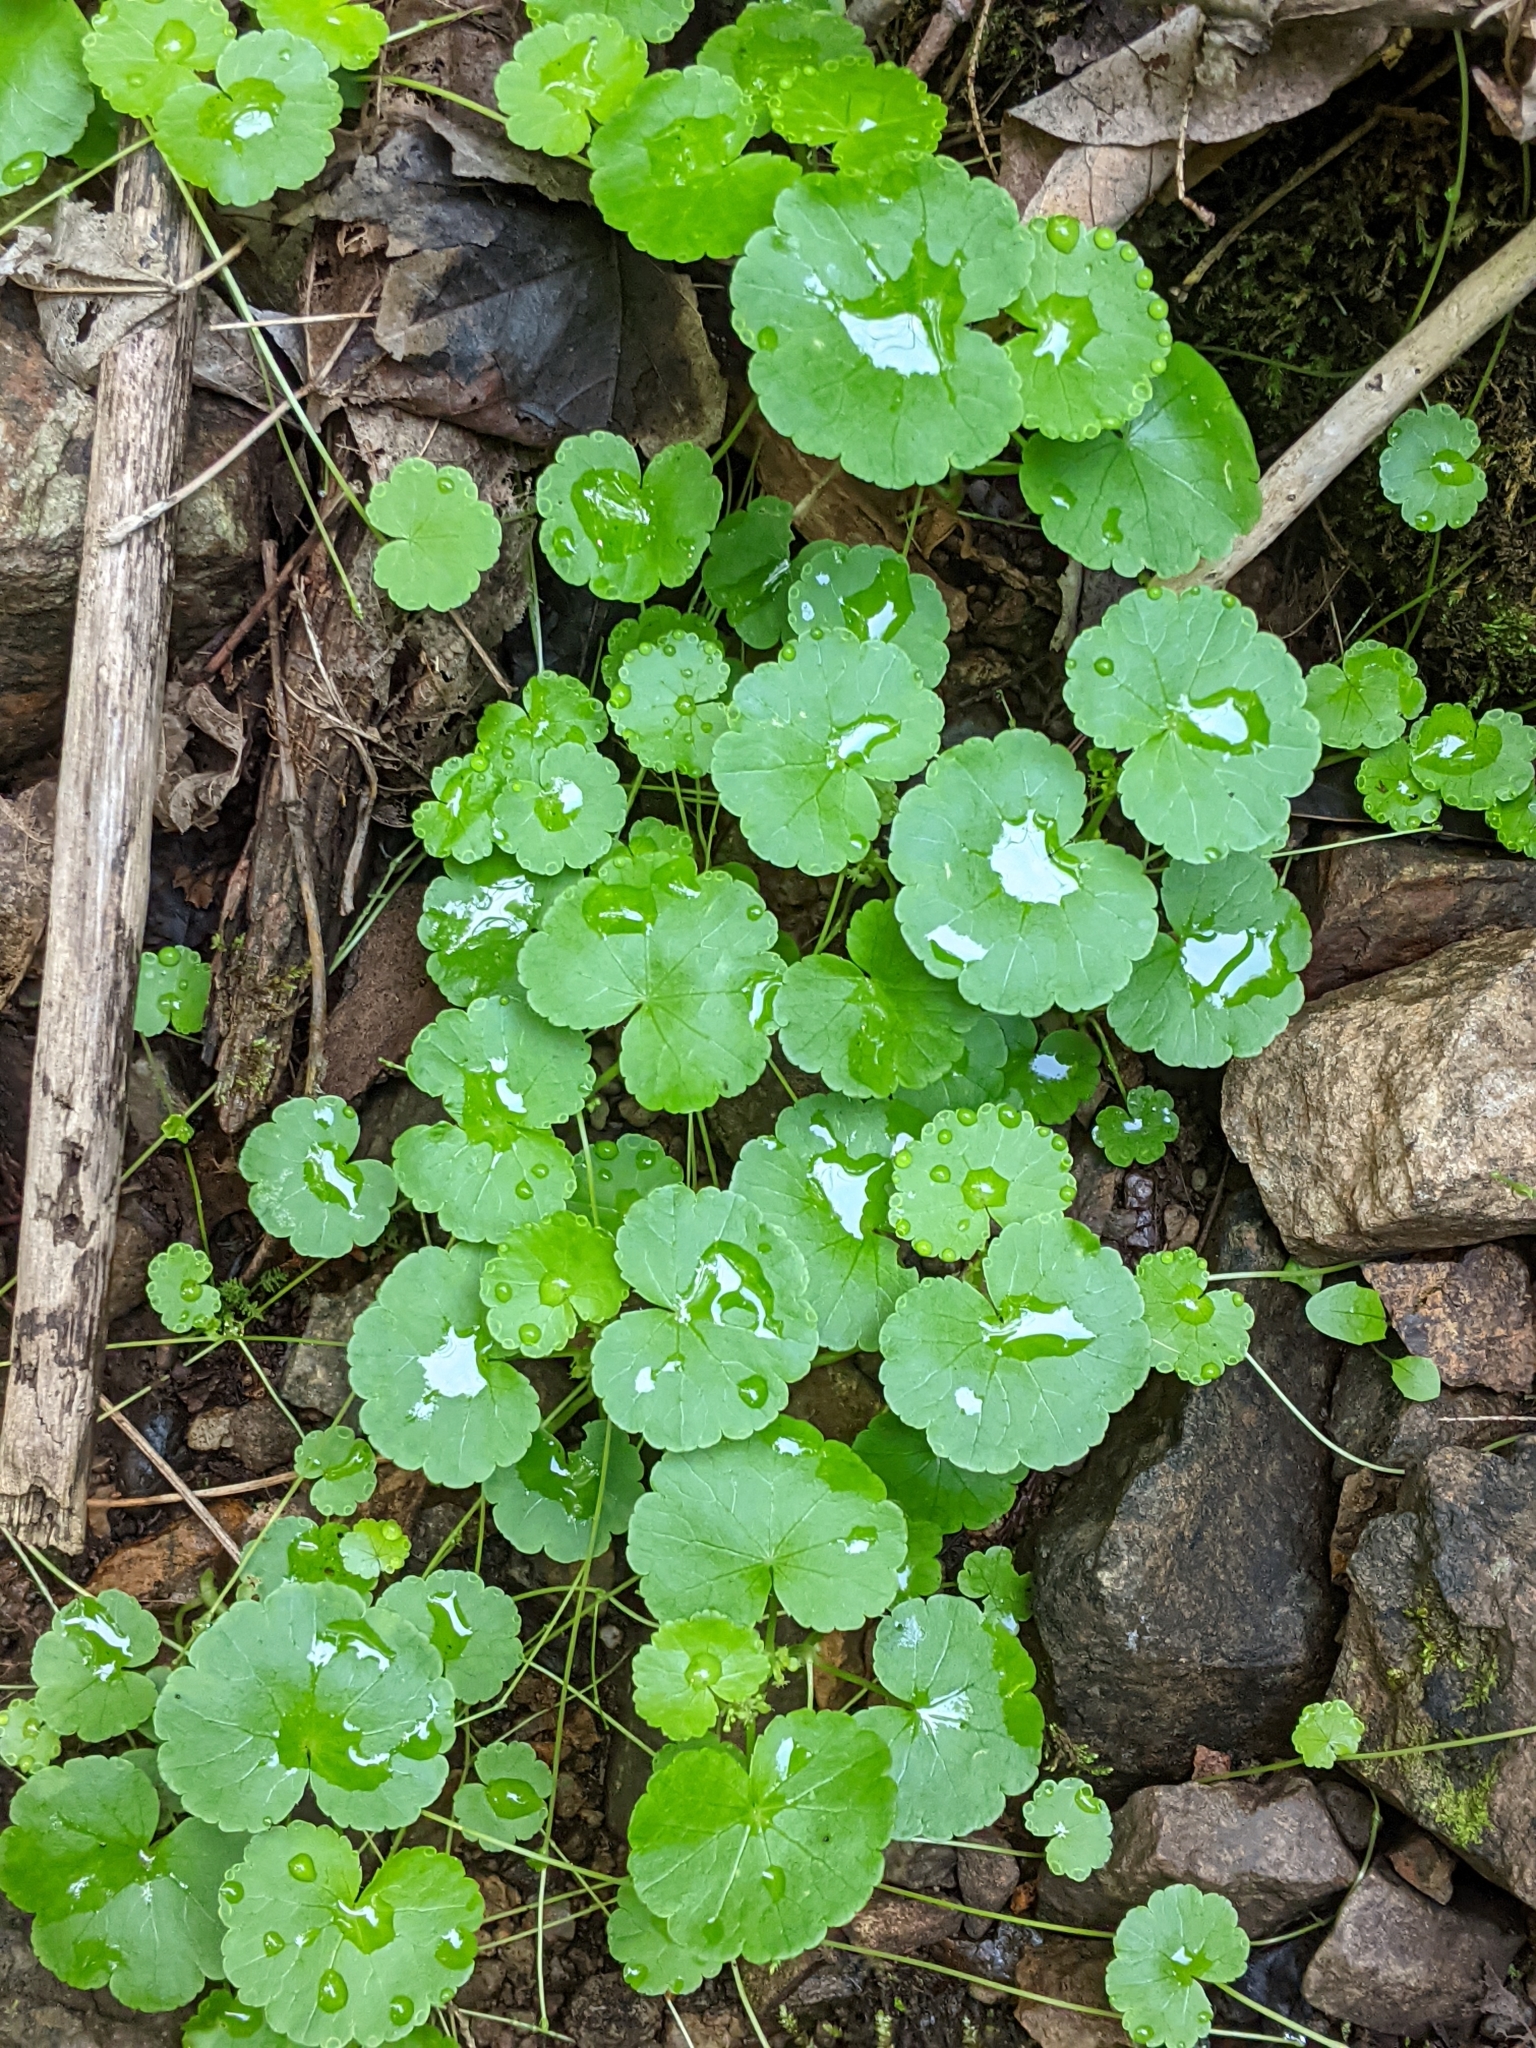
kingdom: Plantae
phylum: Tracheophyta
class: Magnoliopsida
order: Apiales
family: Araliaceae
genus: Hydrocotyle
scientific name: Hydrocotyle americana
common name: American water-pennywort
